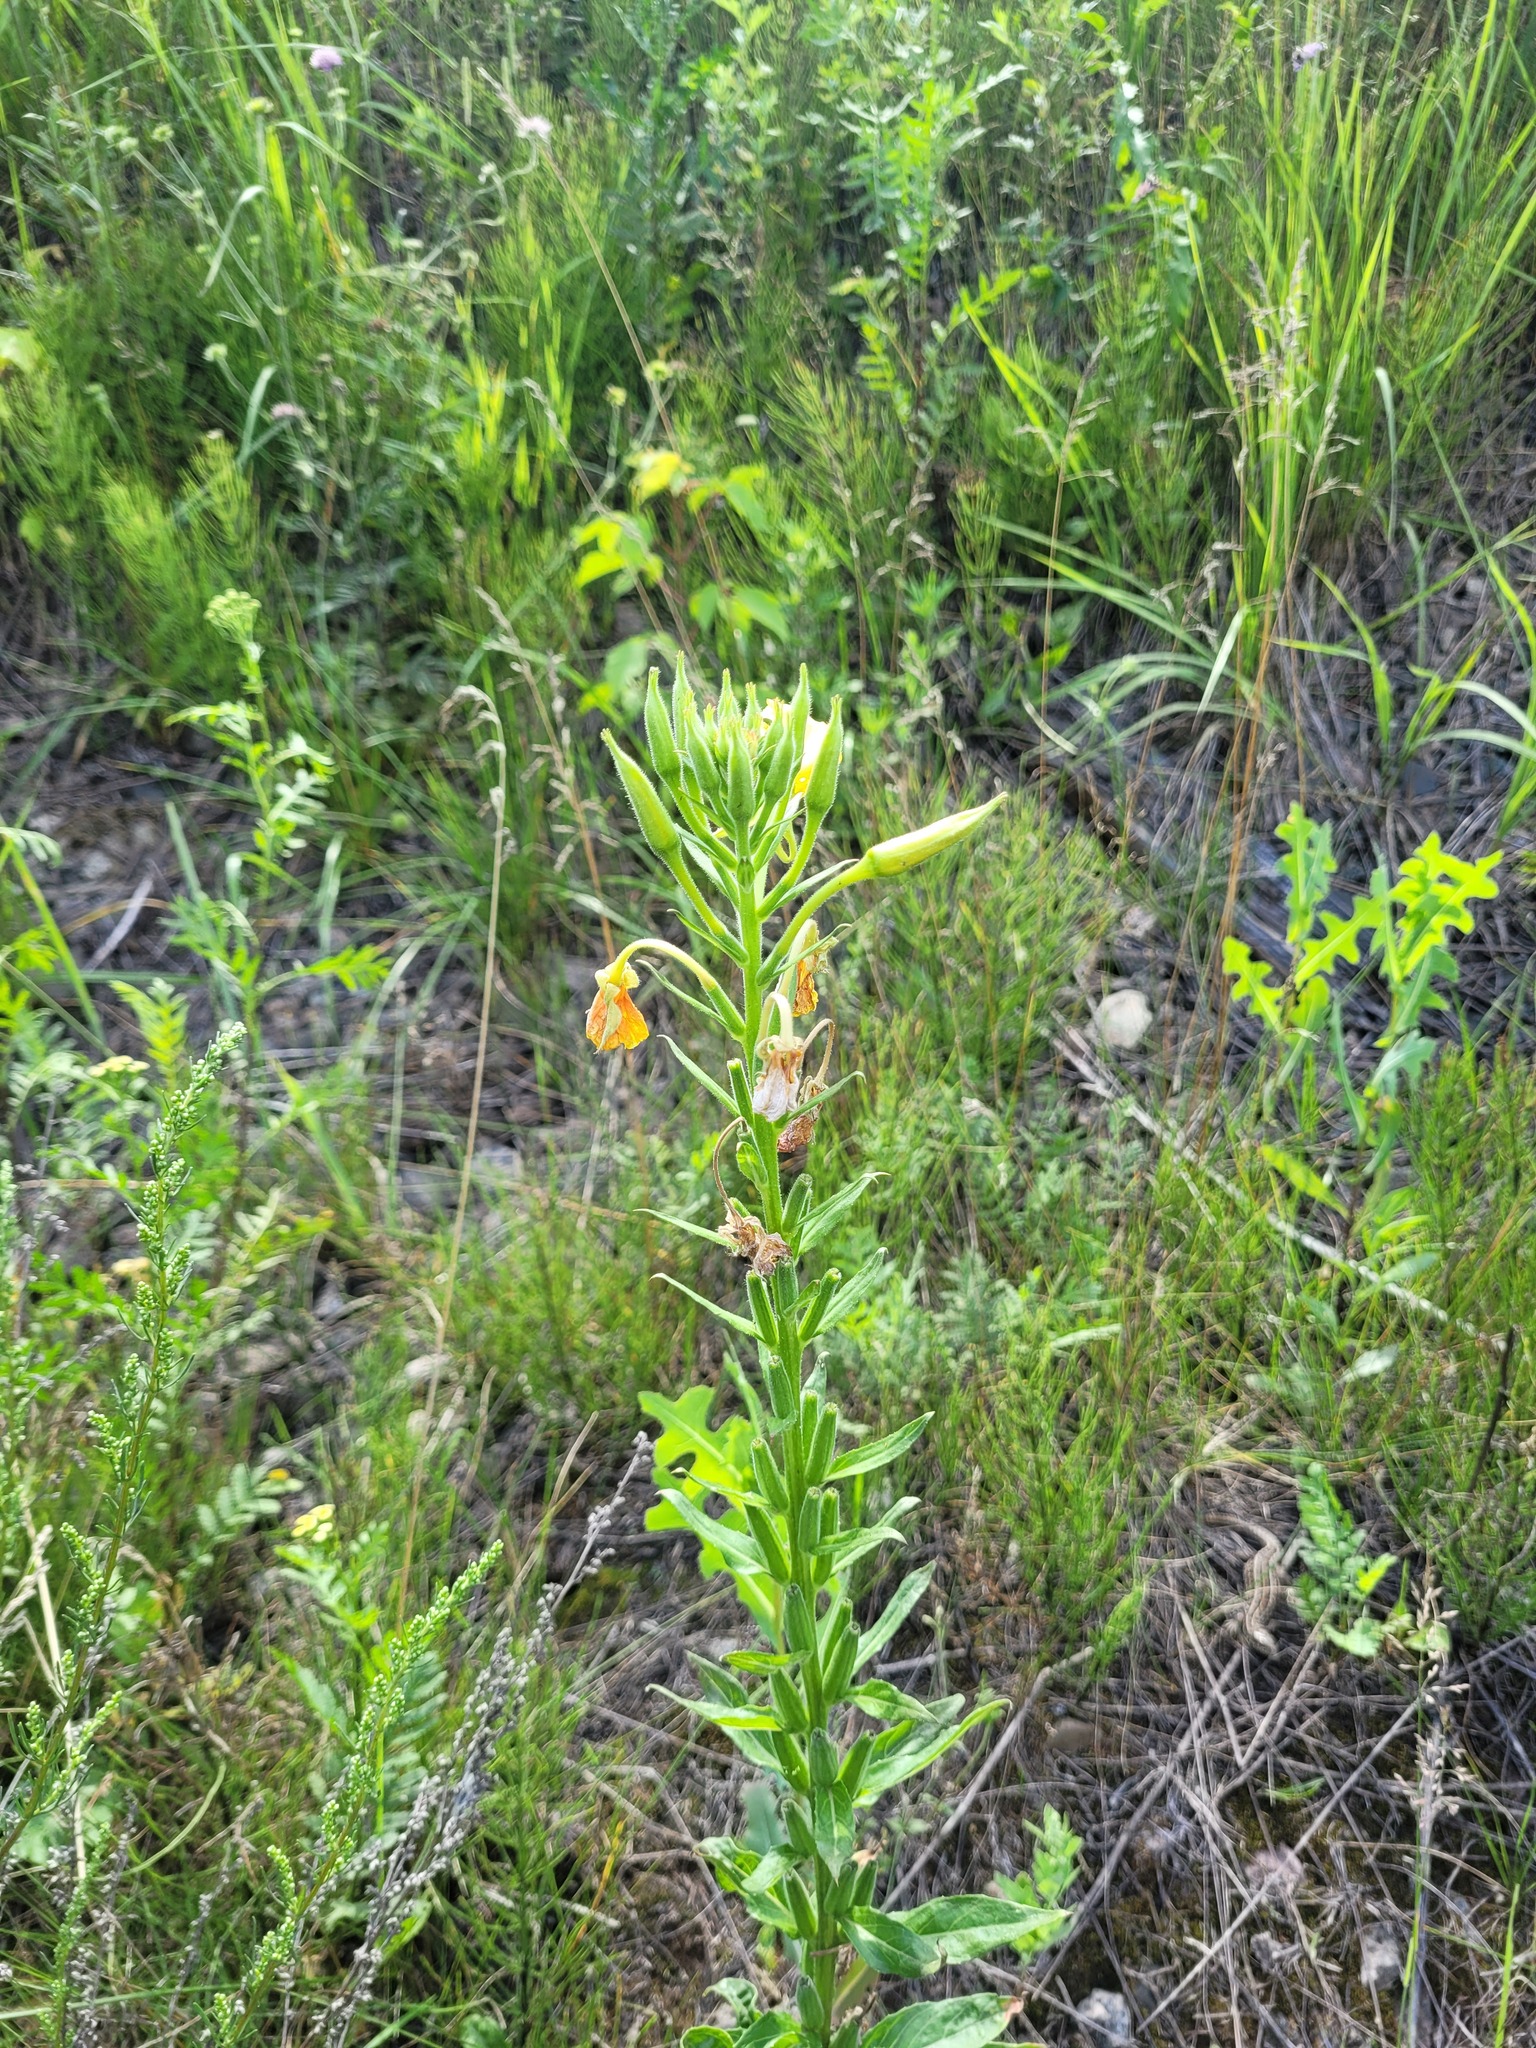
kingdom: Plantae
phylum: Tracheophyta
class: Magnoliopsida
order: Myrtales
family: Onagraceae
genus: Oenothera
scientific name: Oenothera biennis
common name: Common evening-primrose
